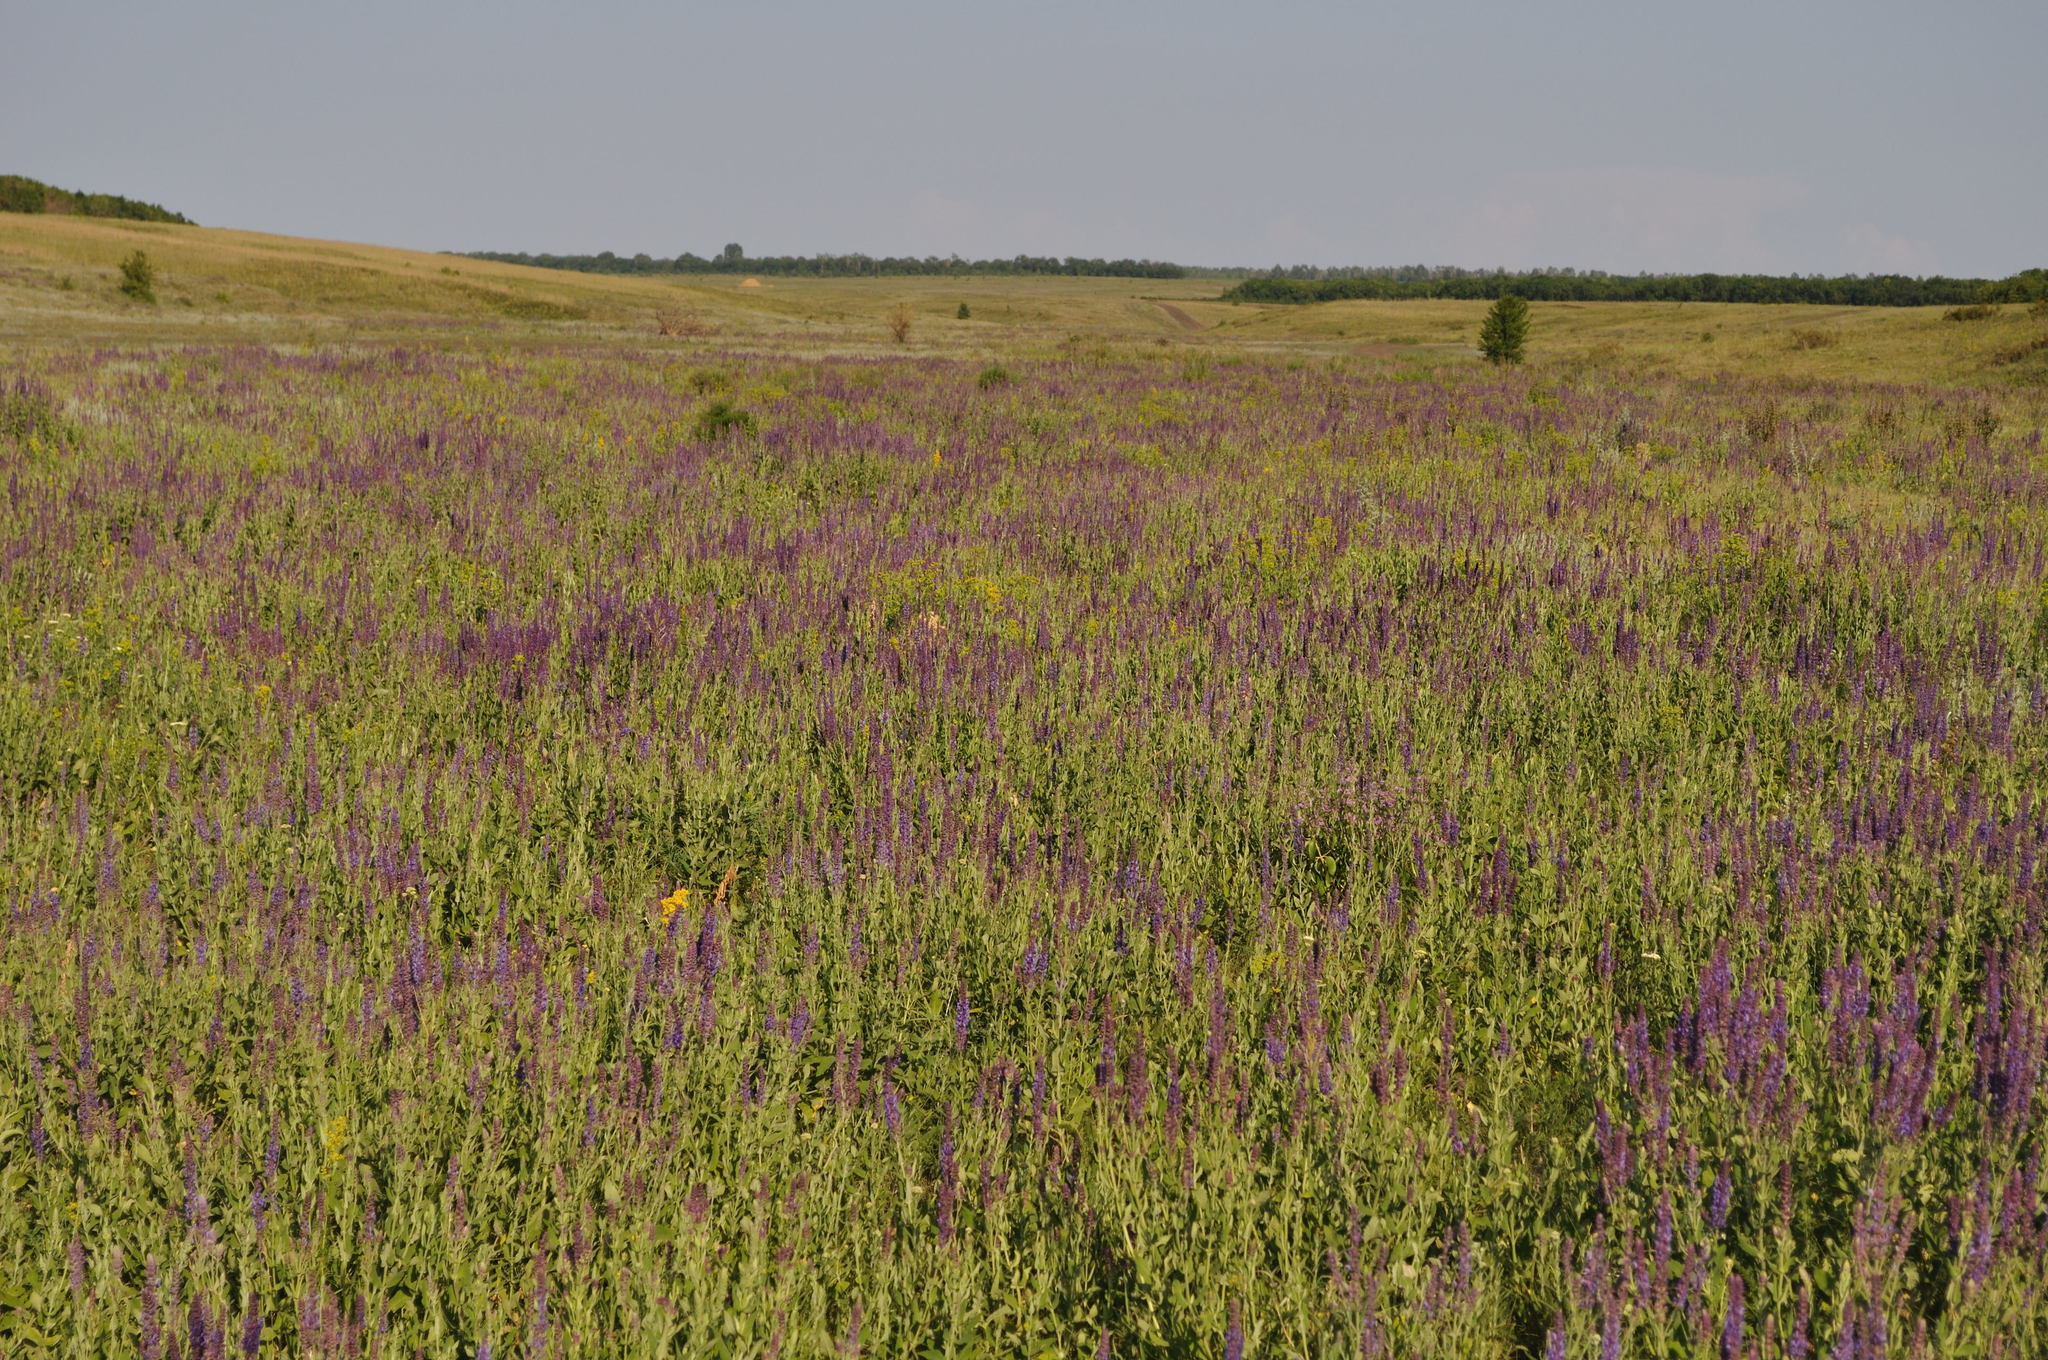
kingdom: Plantae
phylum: Tracheophyta
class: Magnoliopsida
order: Lamiales
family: Lamiaceae
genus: Salvia
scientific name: Salvia nemorosa
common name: Balkan clary
